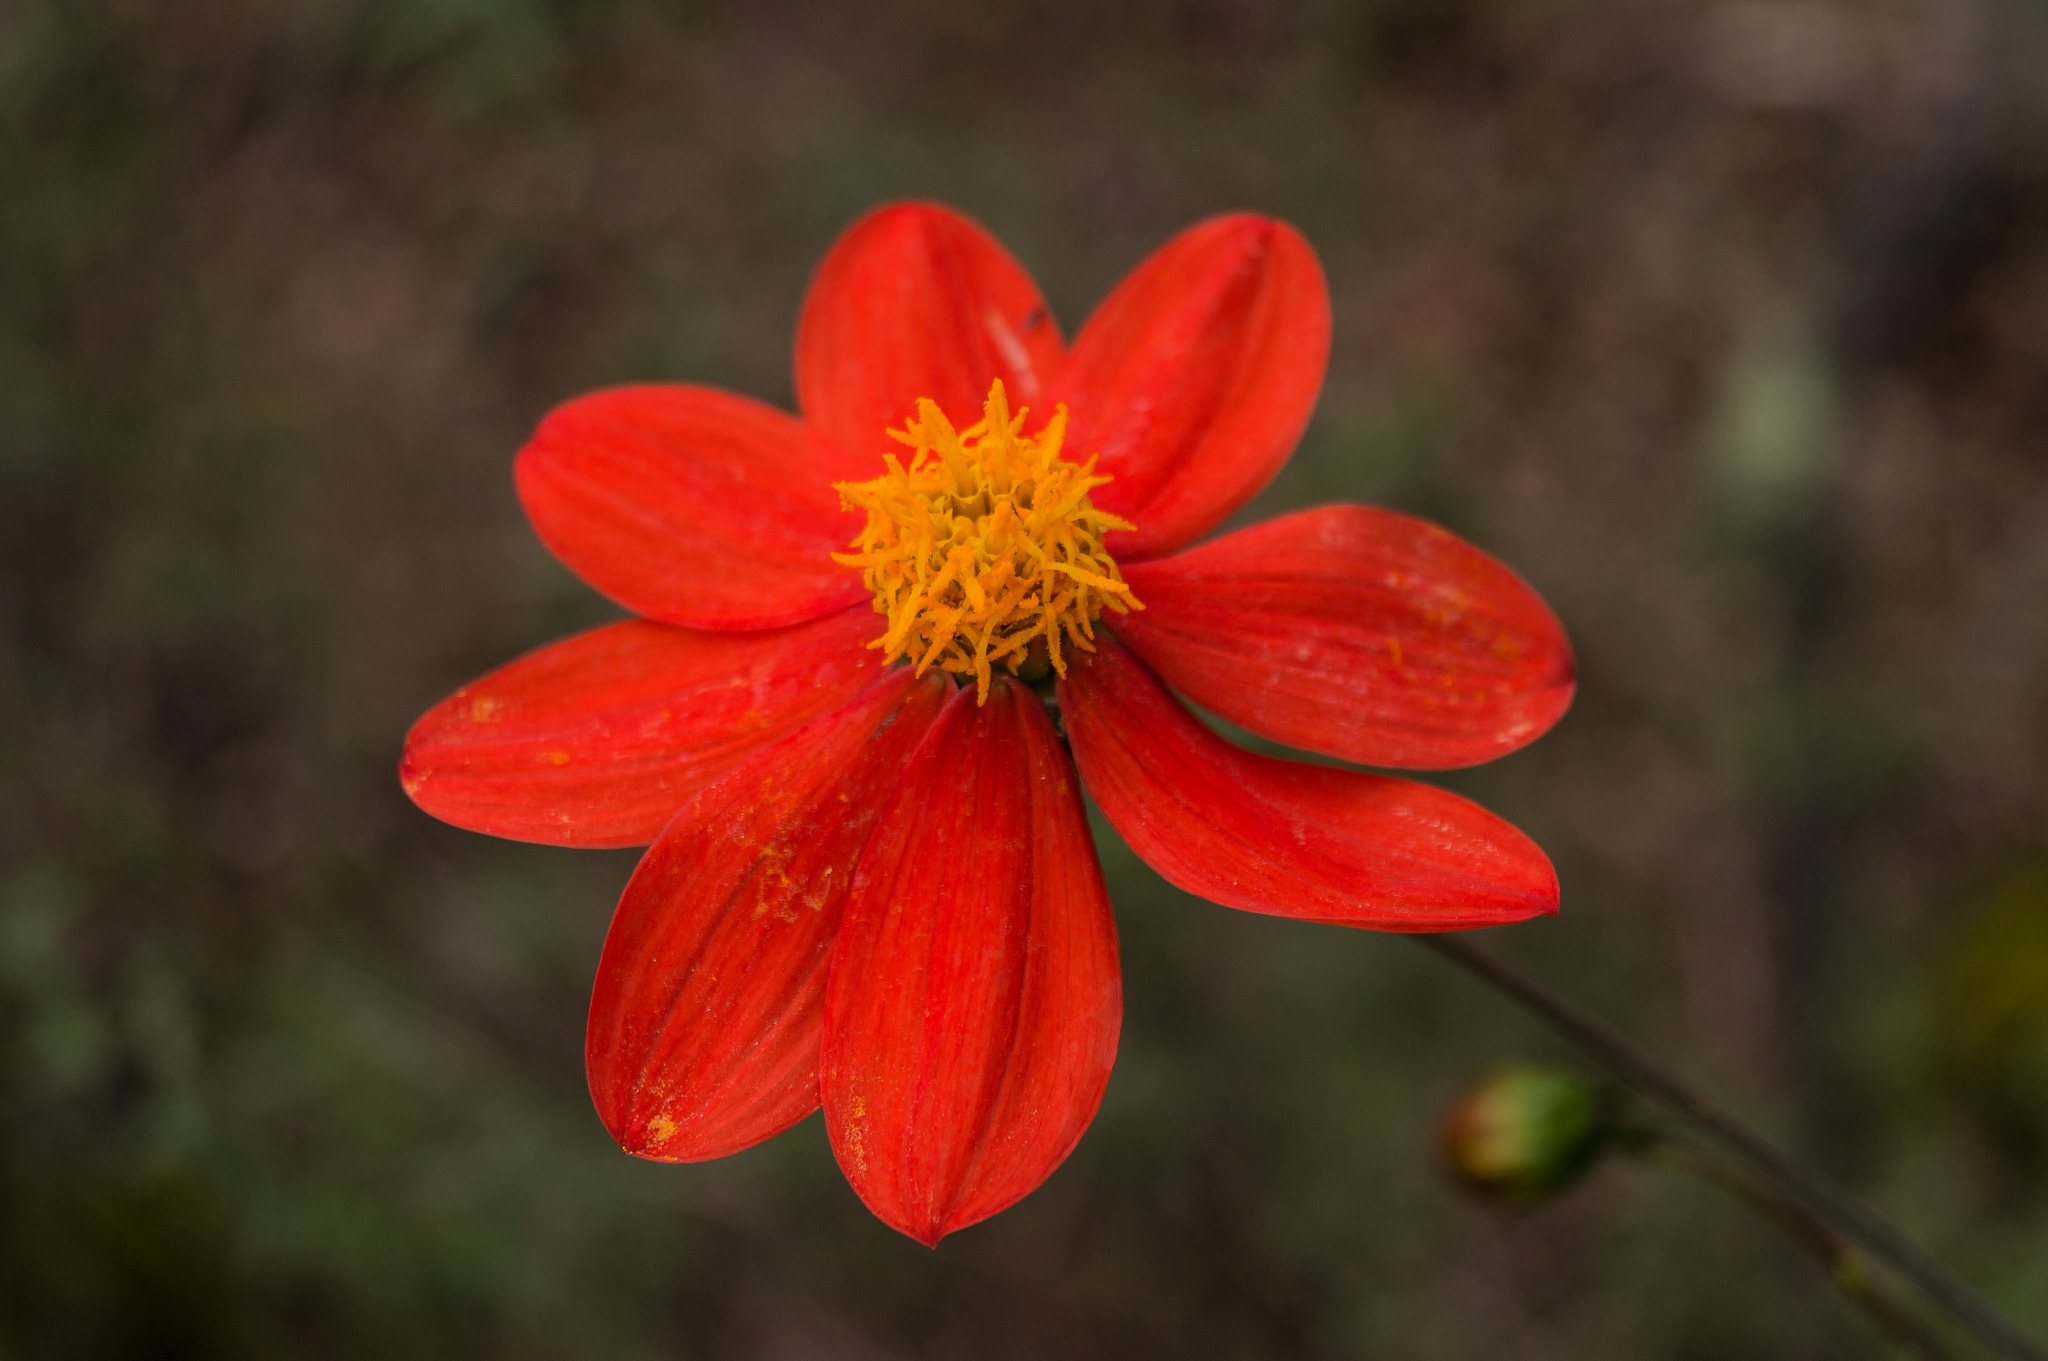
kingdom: Plantae
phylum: Tracheophyta
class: Magnoliopsida
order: Asterales
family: Asteraceae
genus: Dahlia
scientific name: Dahlia coccinea
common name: Red dahlia
